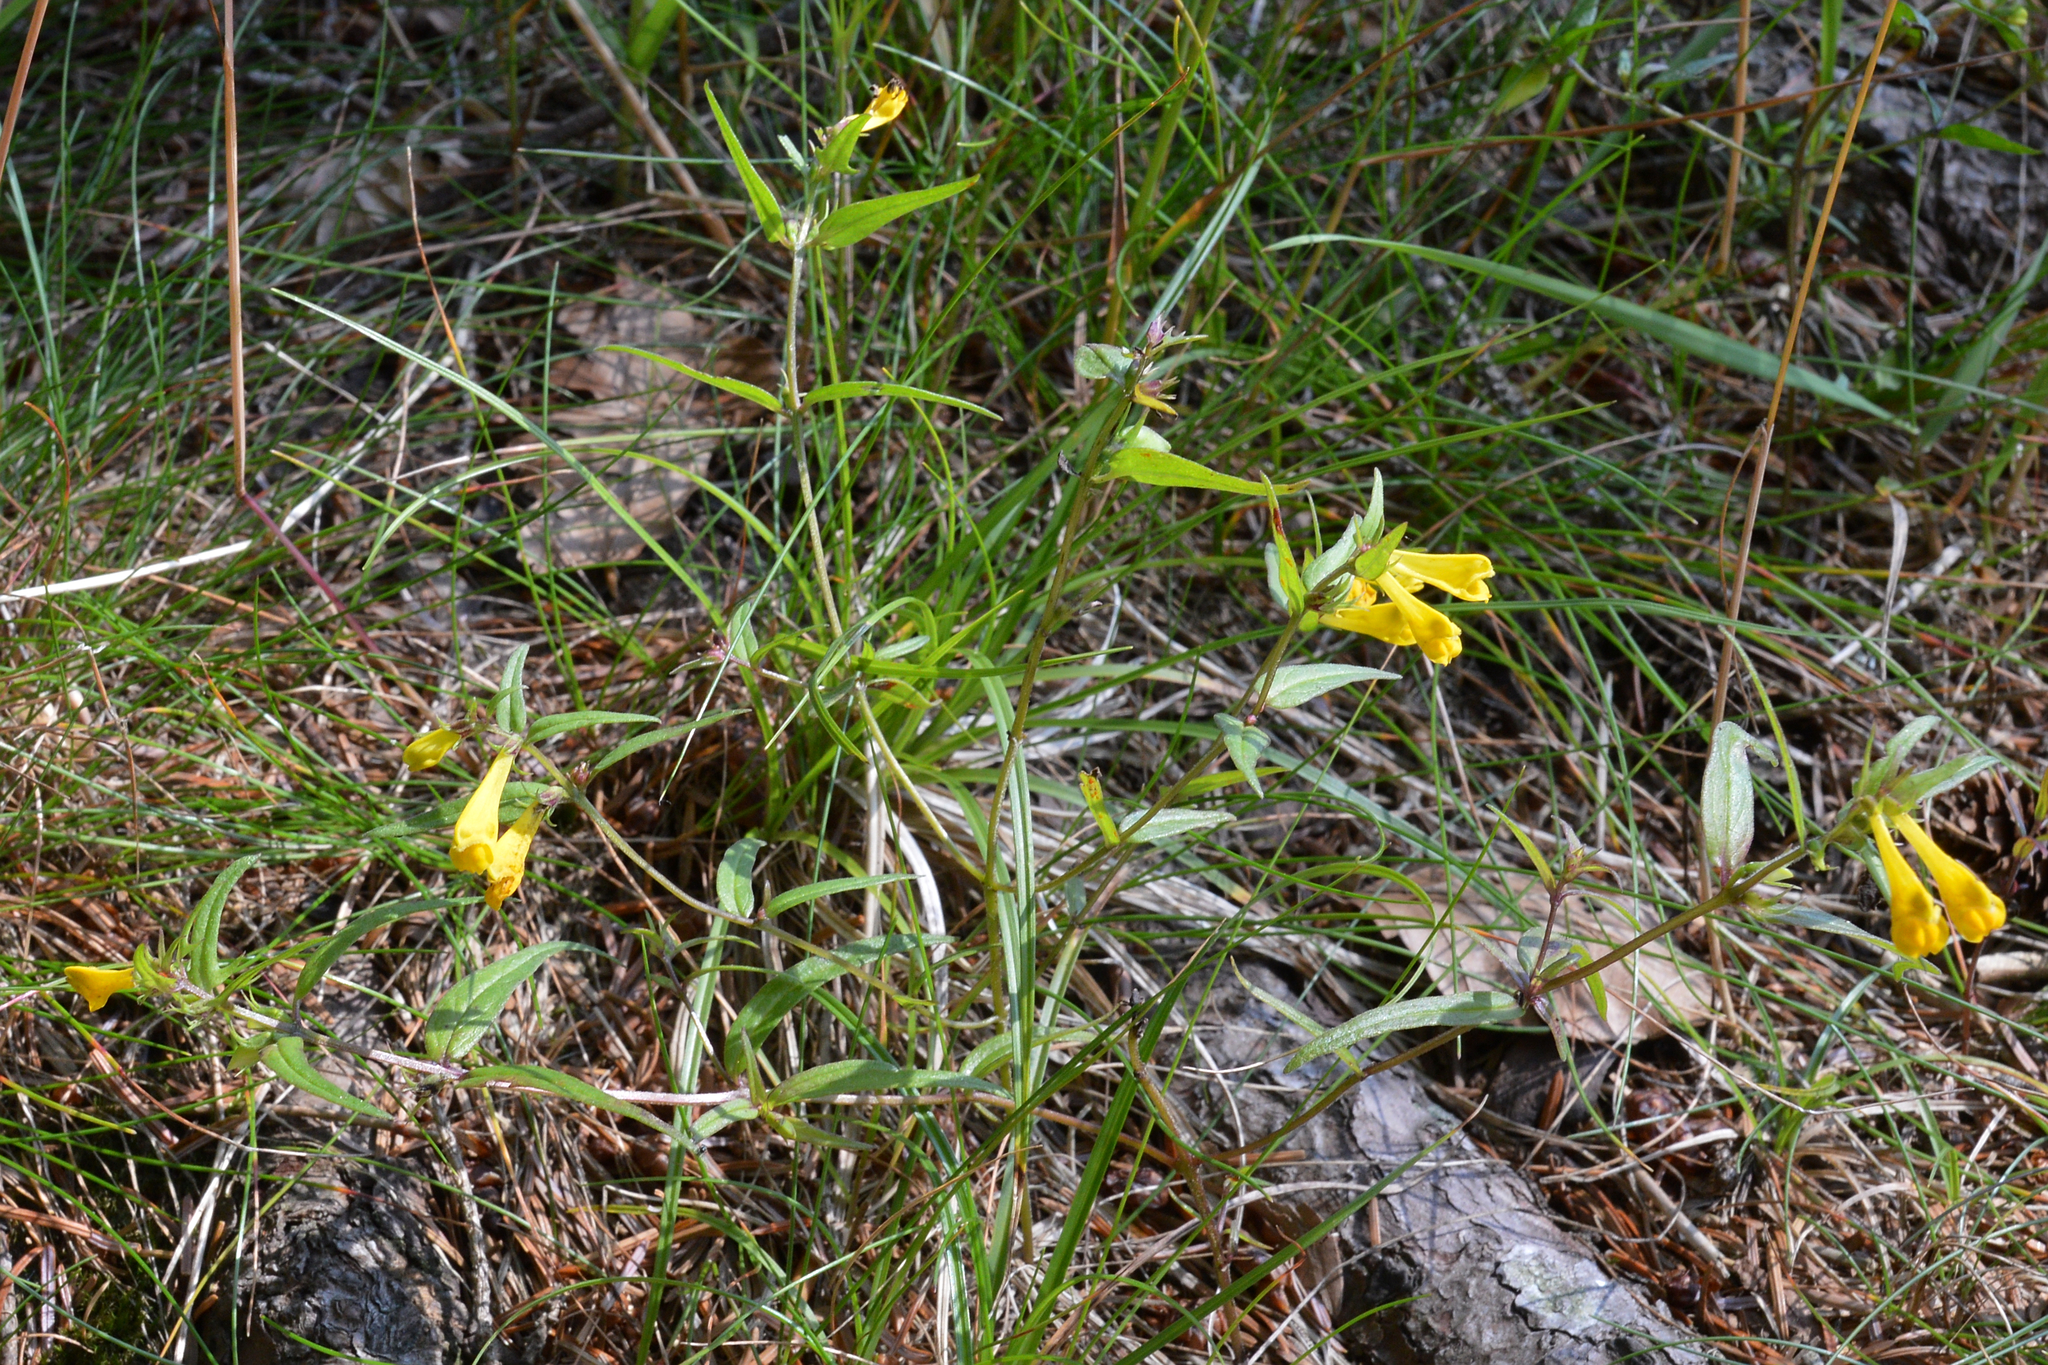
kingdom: Plantae
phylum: Tracheophyta
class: Magnoliopsida
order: Lamiales
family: Orobanchaceae
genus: Melampyrum
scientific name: Melampyrum pratense
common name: Common cow-wheat
